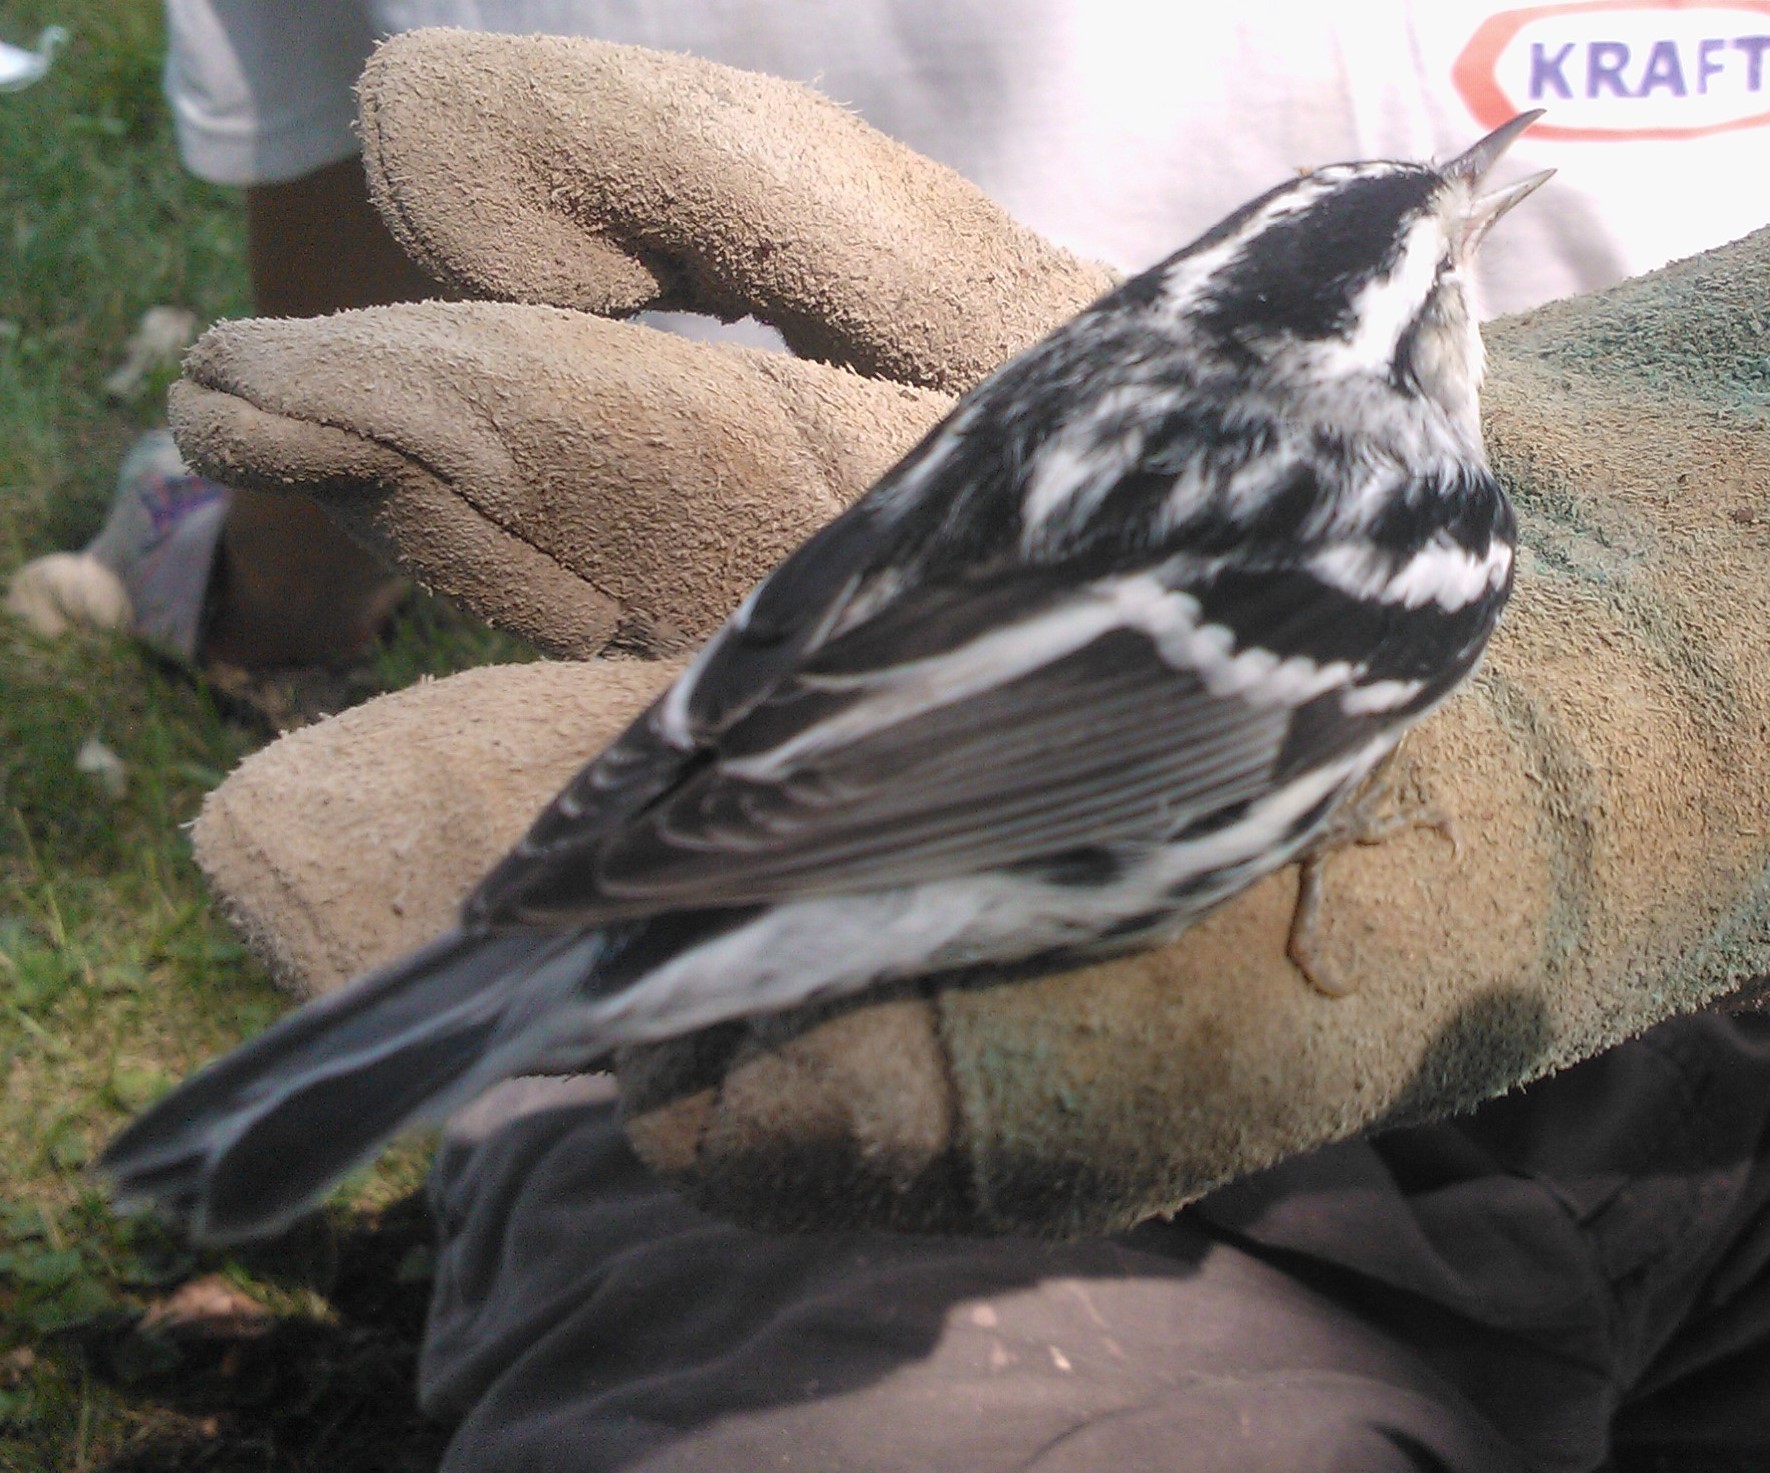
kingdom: Animalia
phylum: Chordata
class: Aves
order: Passeriformes
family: Parulidae
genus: Mniotilta
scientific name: Mniotilta varia
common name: Black-and-white warbler
